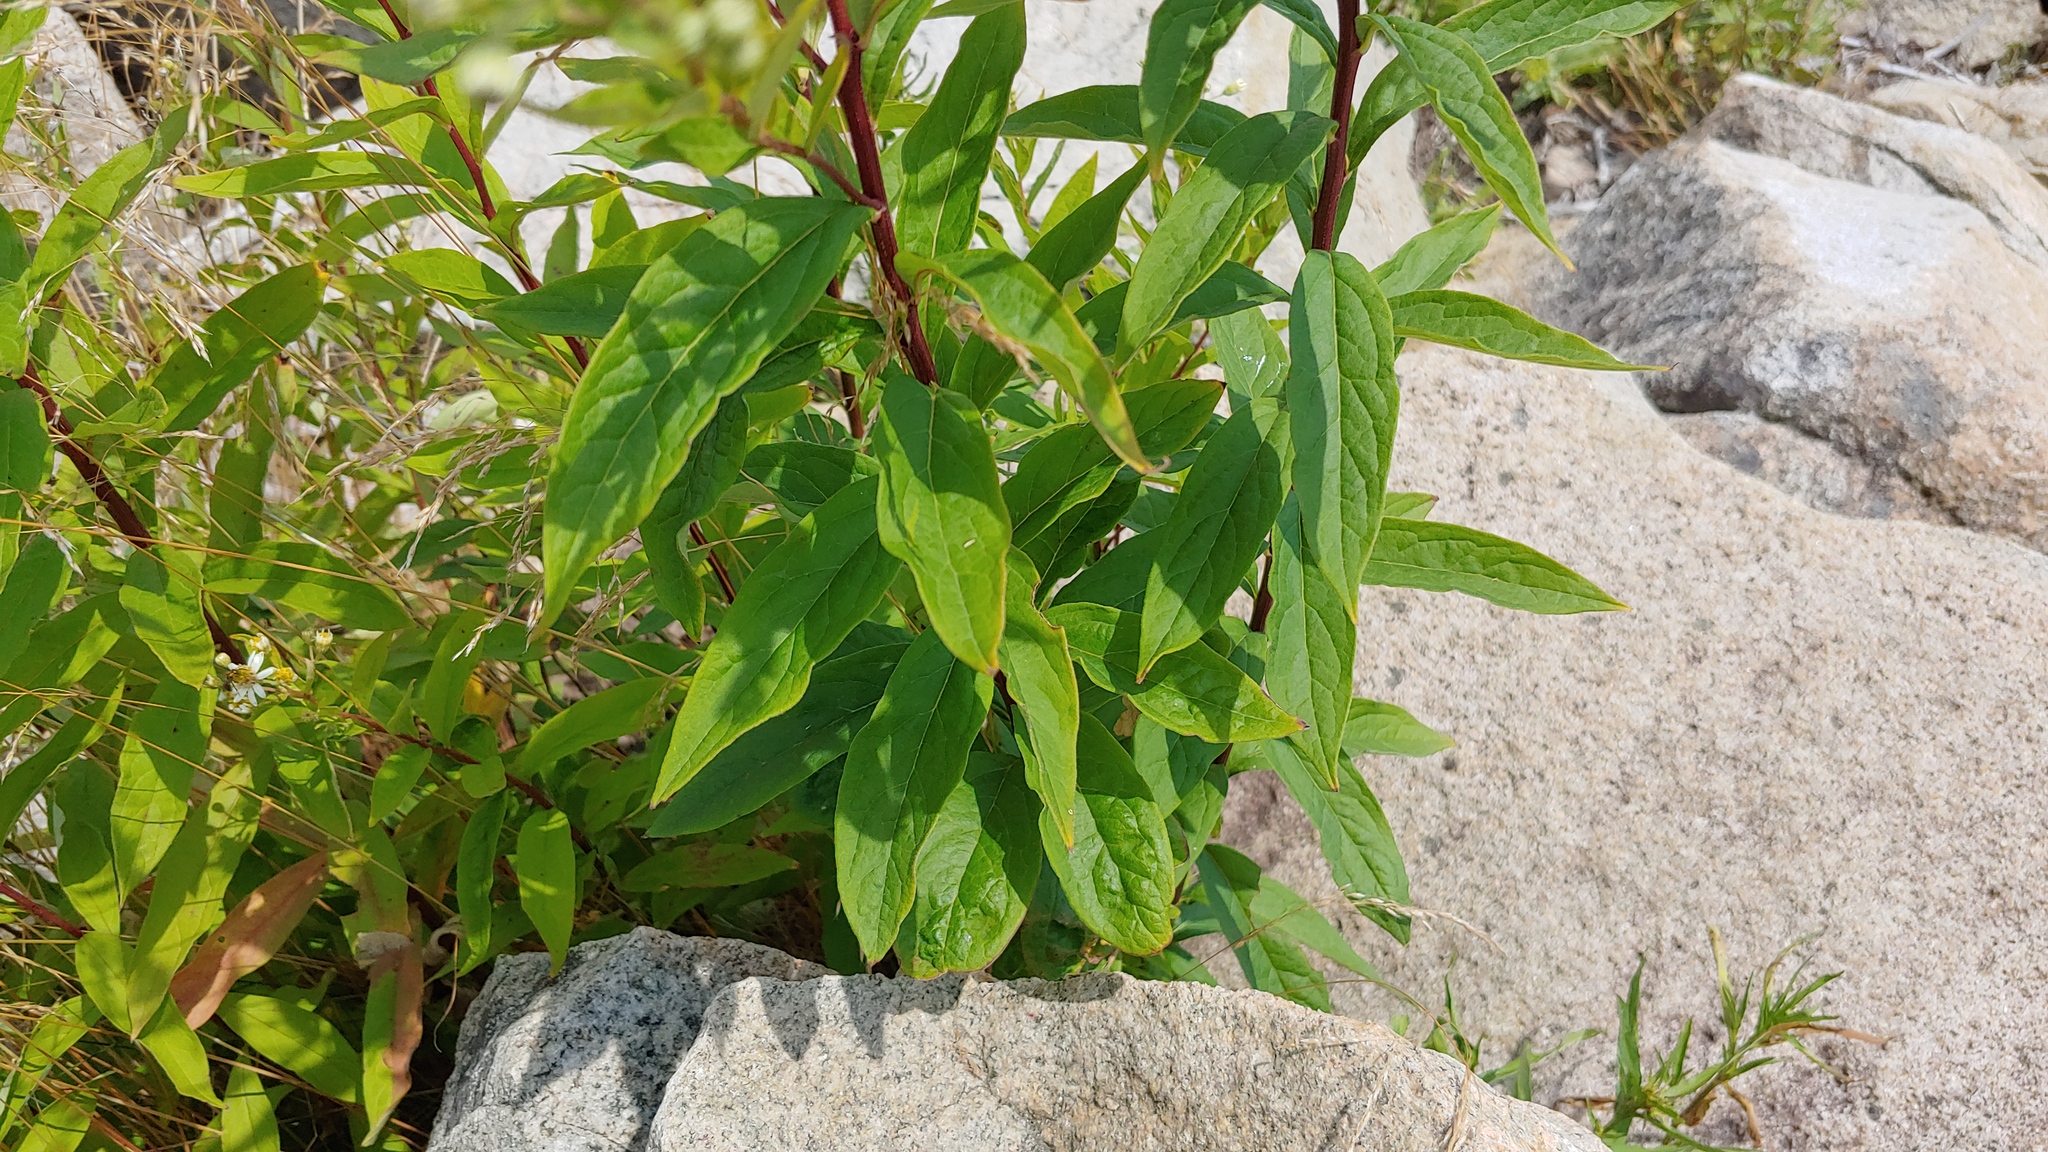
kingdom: Plantae
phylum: Tracheophyta
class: Magnoliopsida
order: Asterales
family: Asteraceae
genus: Doellingeria
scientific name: Doellingeria umbellata
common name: Flat-top white aster
